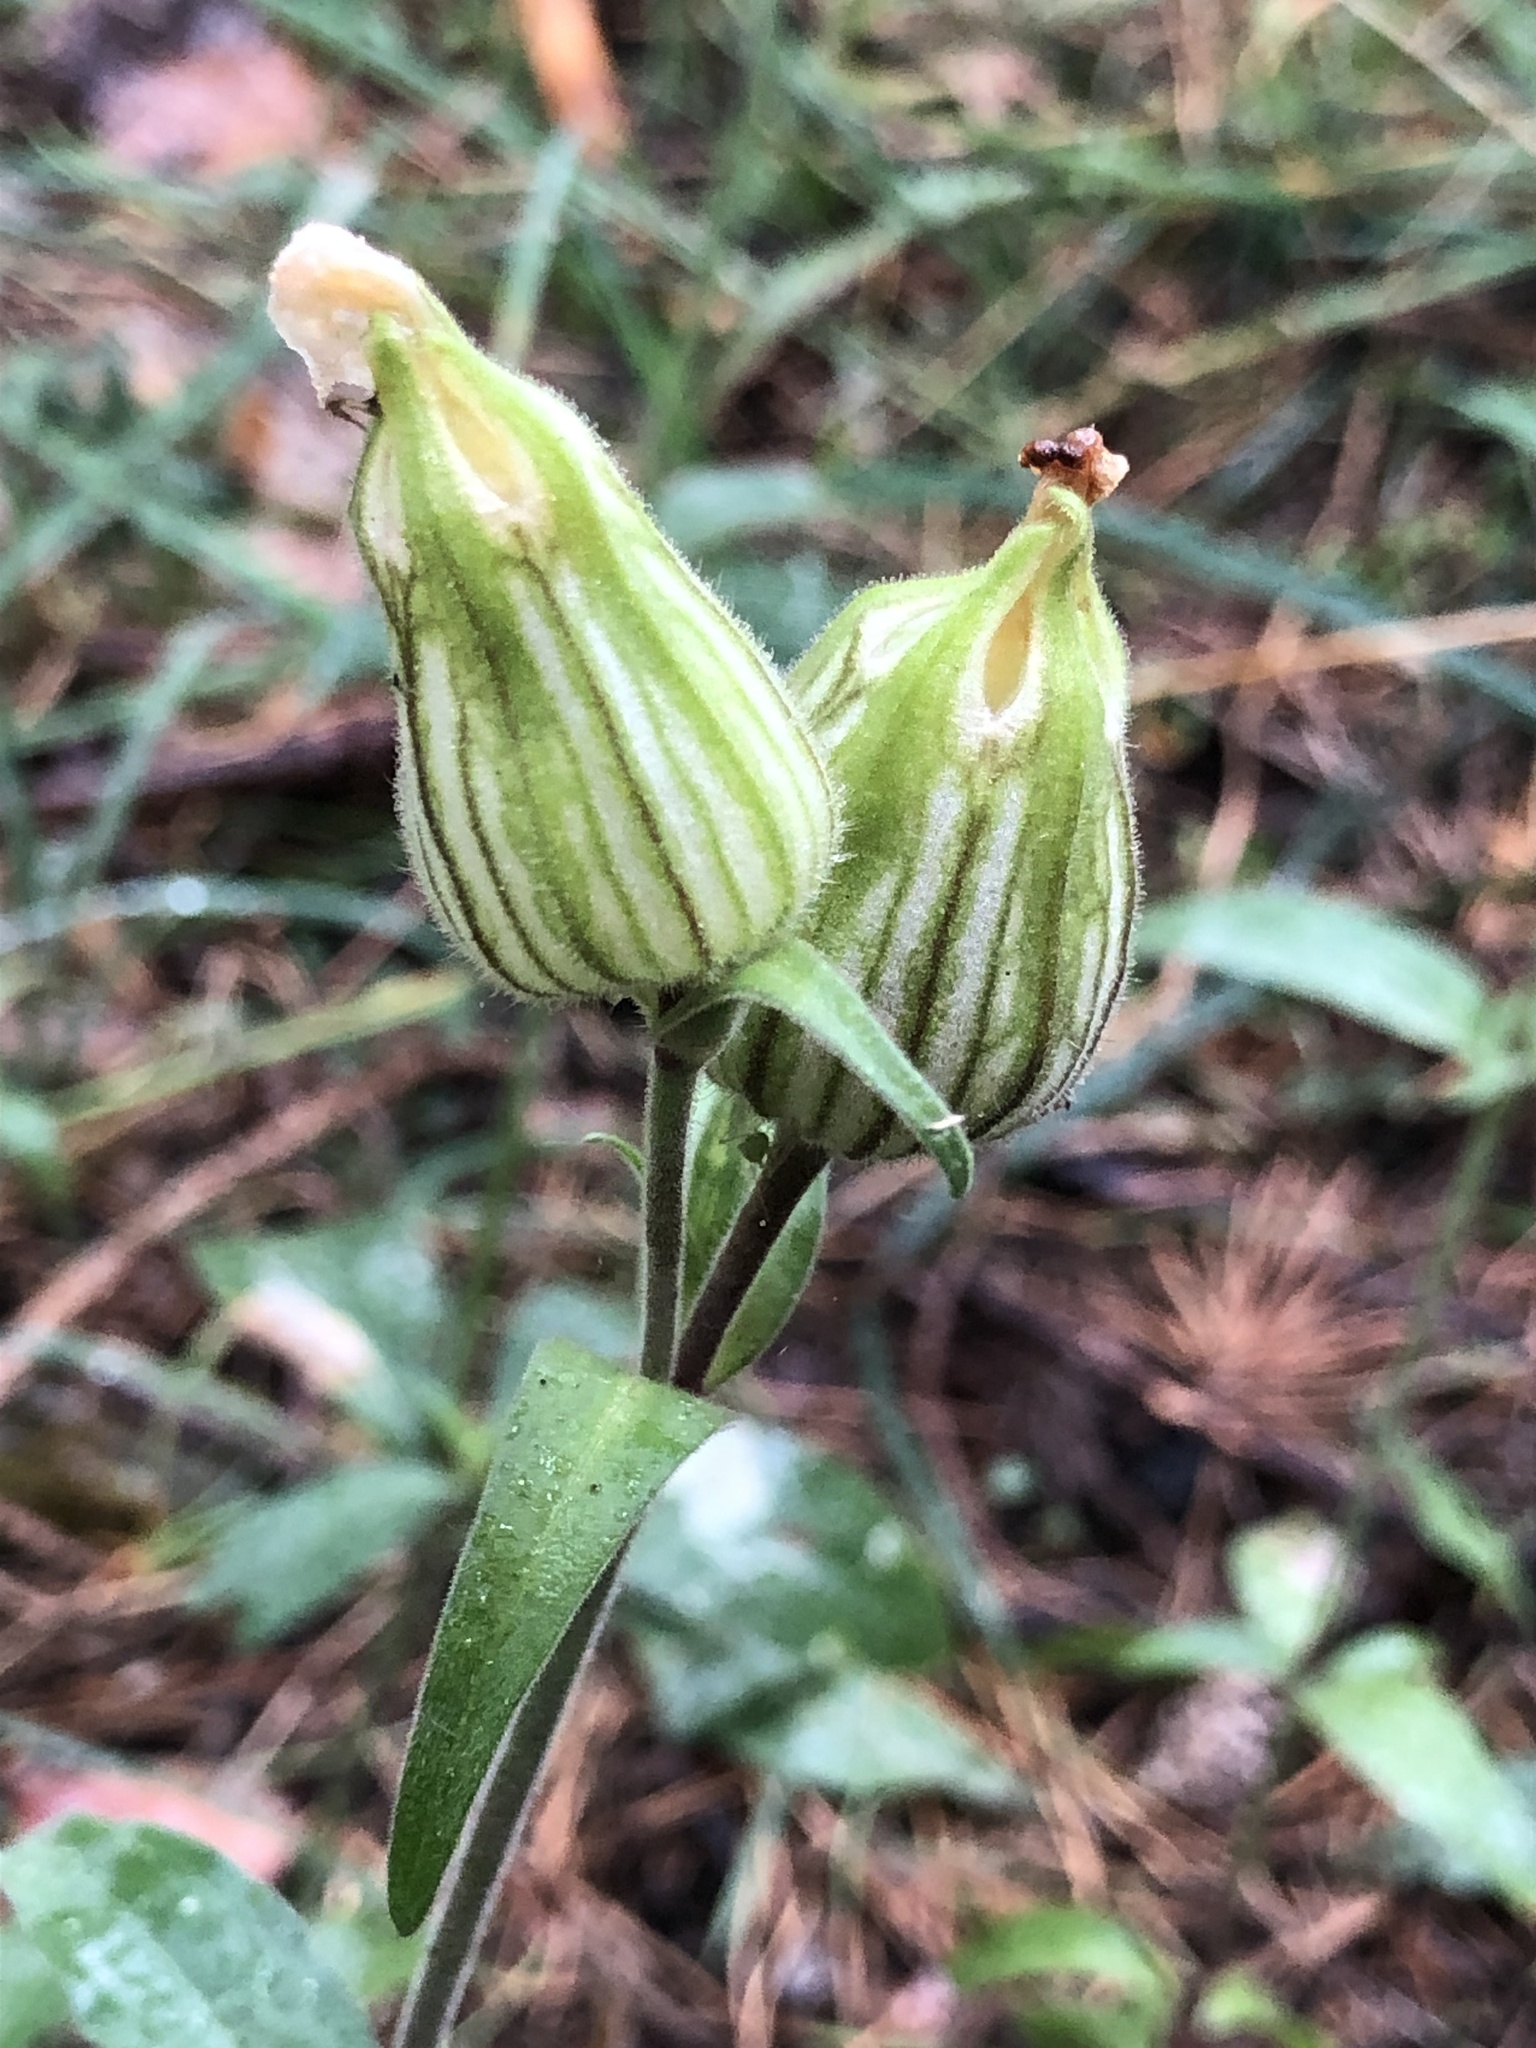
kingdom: Plantae
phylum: Tracheophyta
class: Magnoliopsida
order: Caryophyllales
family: Caryophyllaceae
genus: Silene
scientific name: Silene latifolia
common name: White campion
